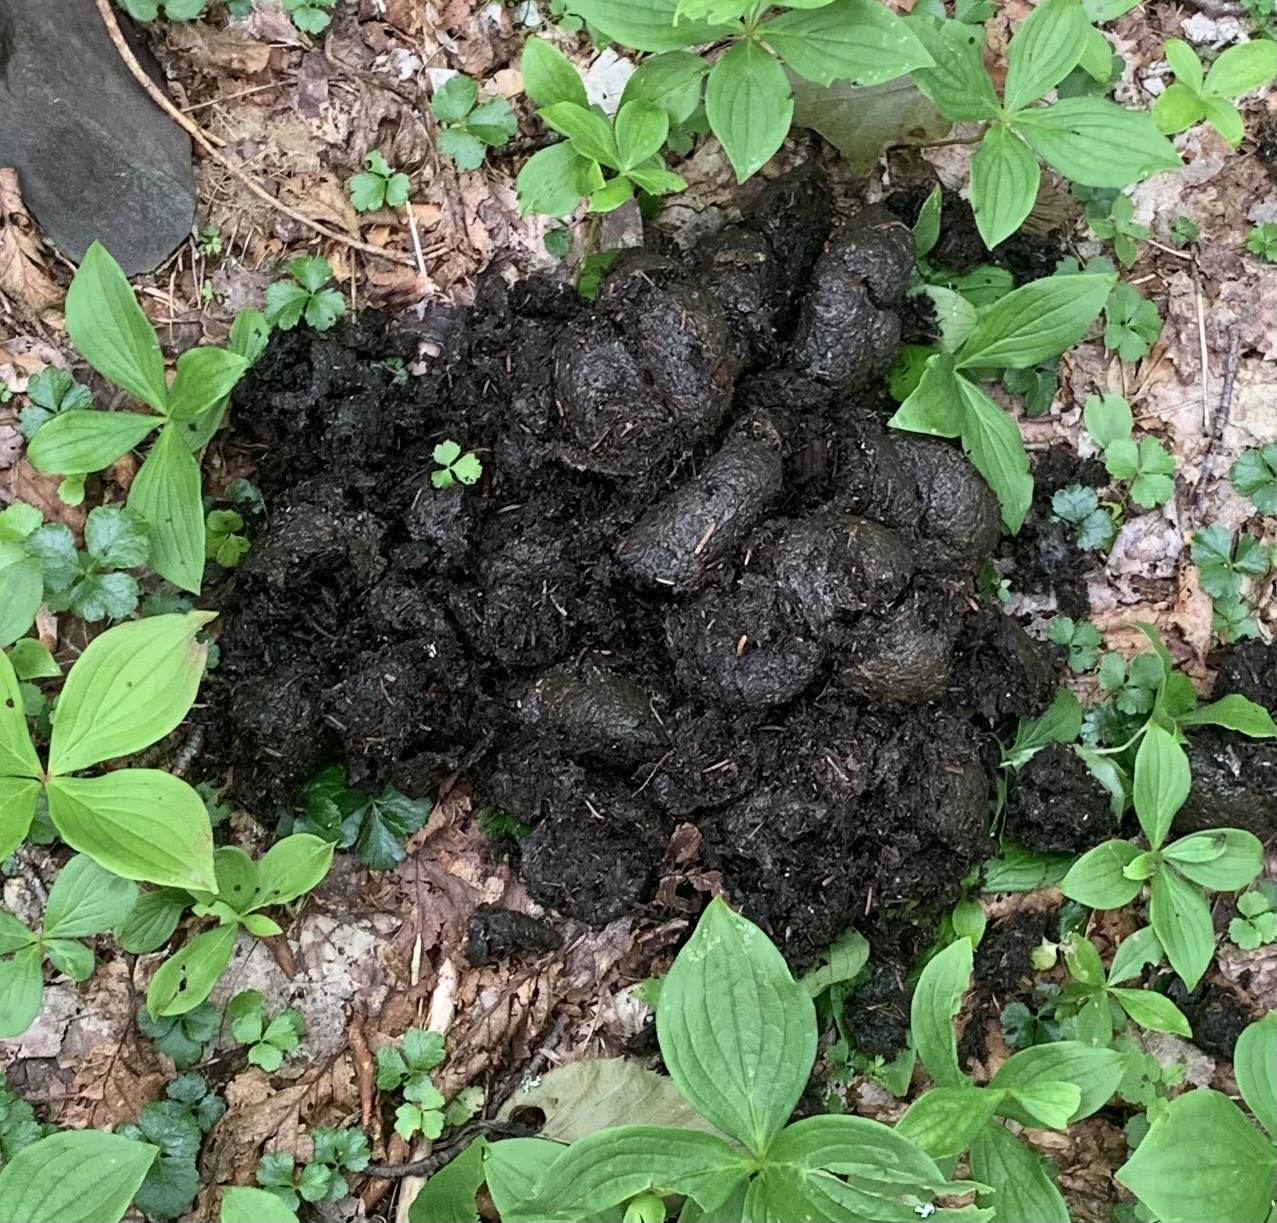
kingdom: Animalia
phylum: Chordata
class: Mammalia
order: Carnivora
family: Ursidae
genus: Ursus
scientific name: Ursus americanus
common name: American black bear
